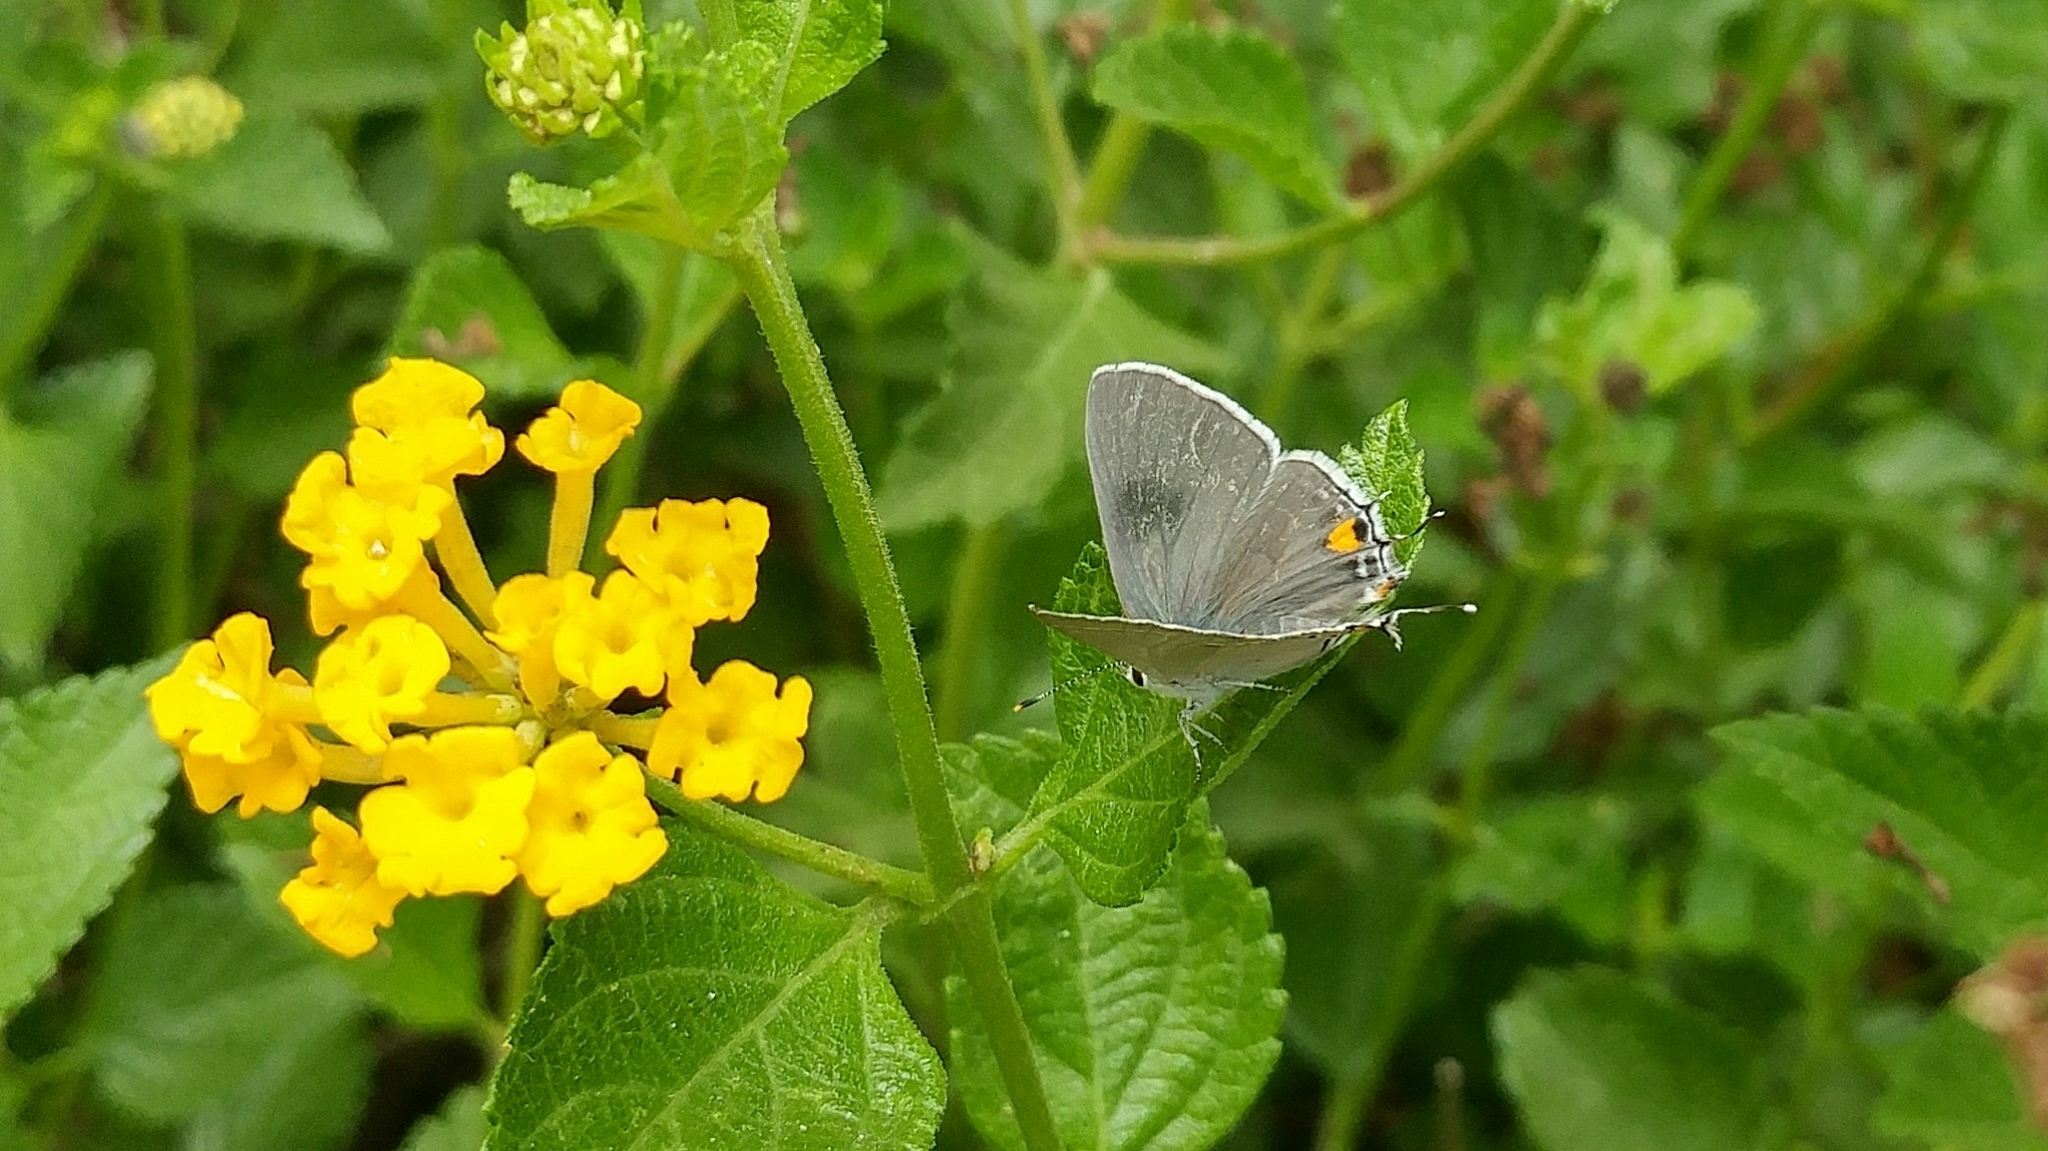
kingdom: Animalia
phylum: Arthropoda
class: Insecta
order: Lepidoptera
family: Lycaenidae
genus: Strymon
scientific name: Strymon melinus
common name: Gray hairstreak
